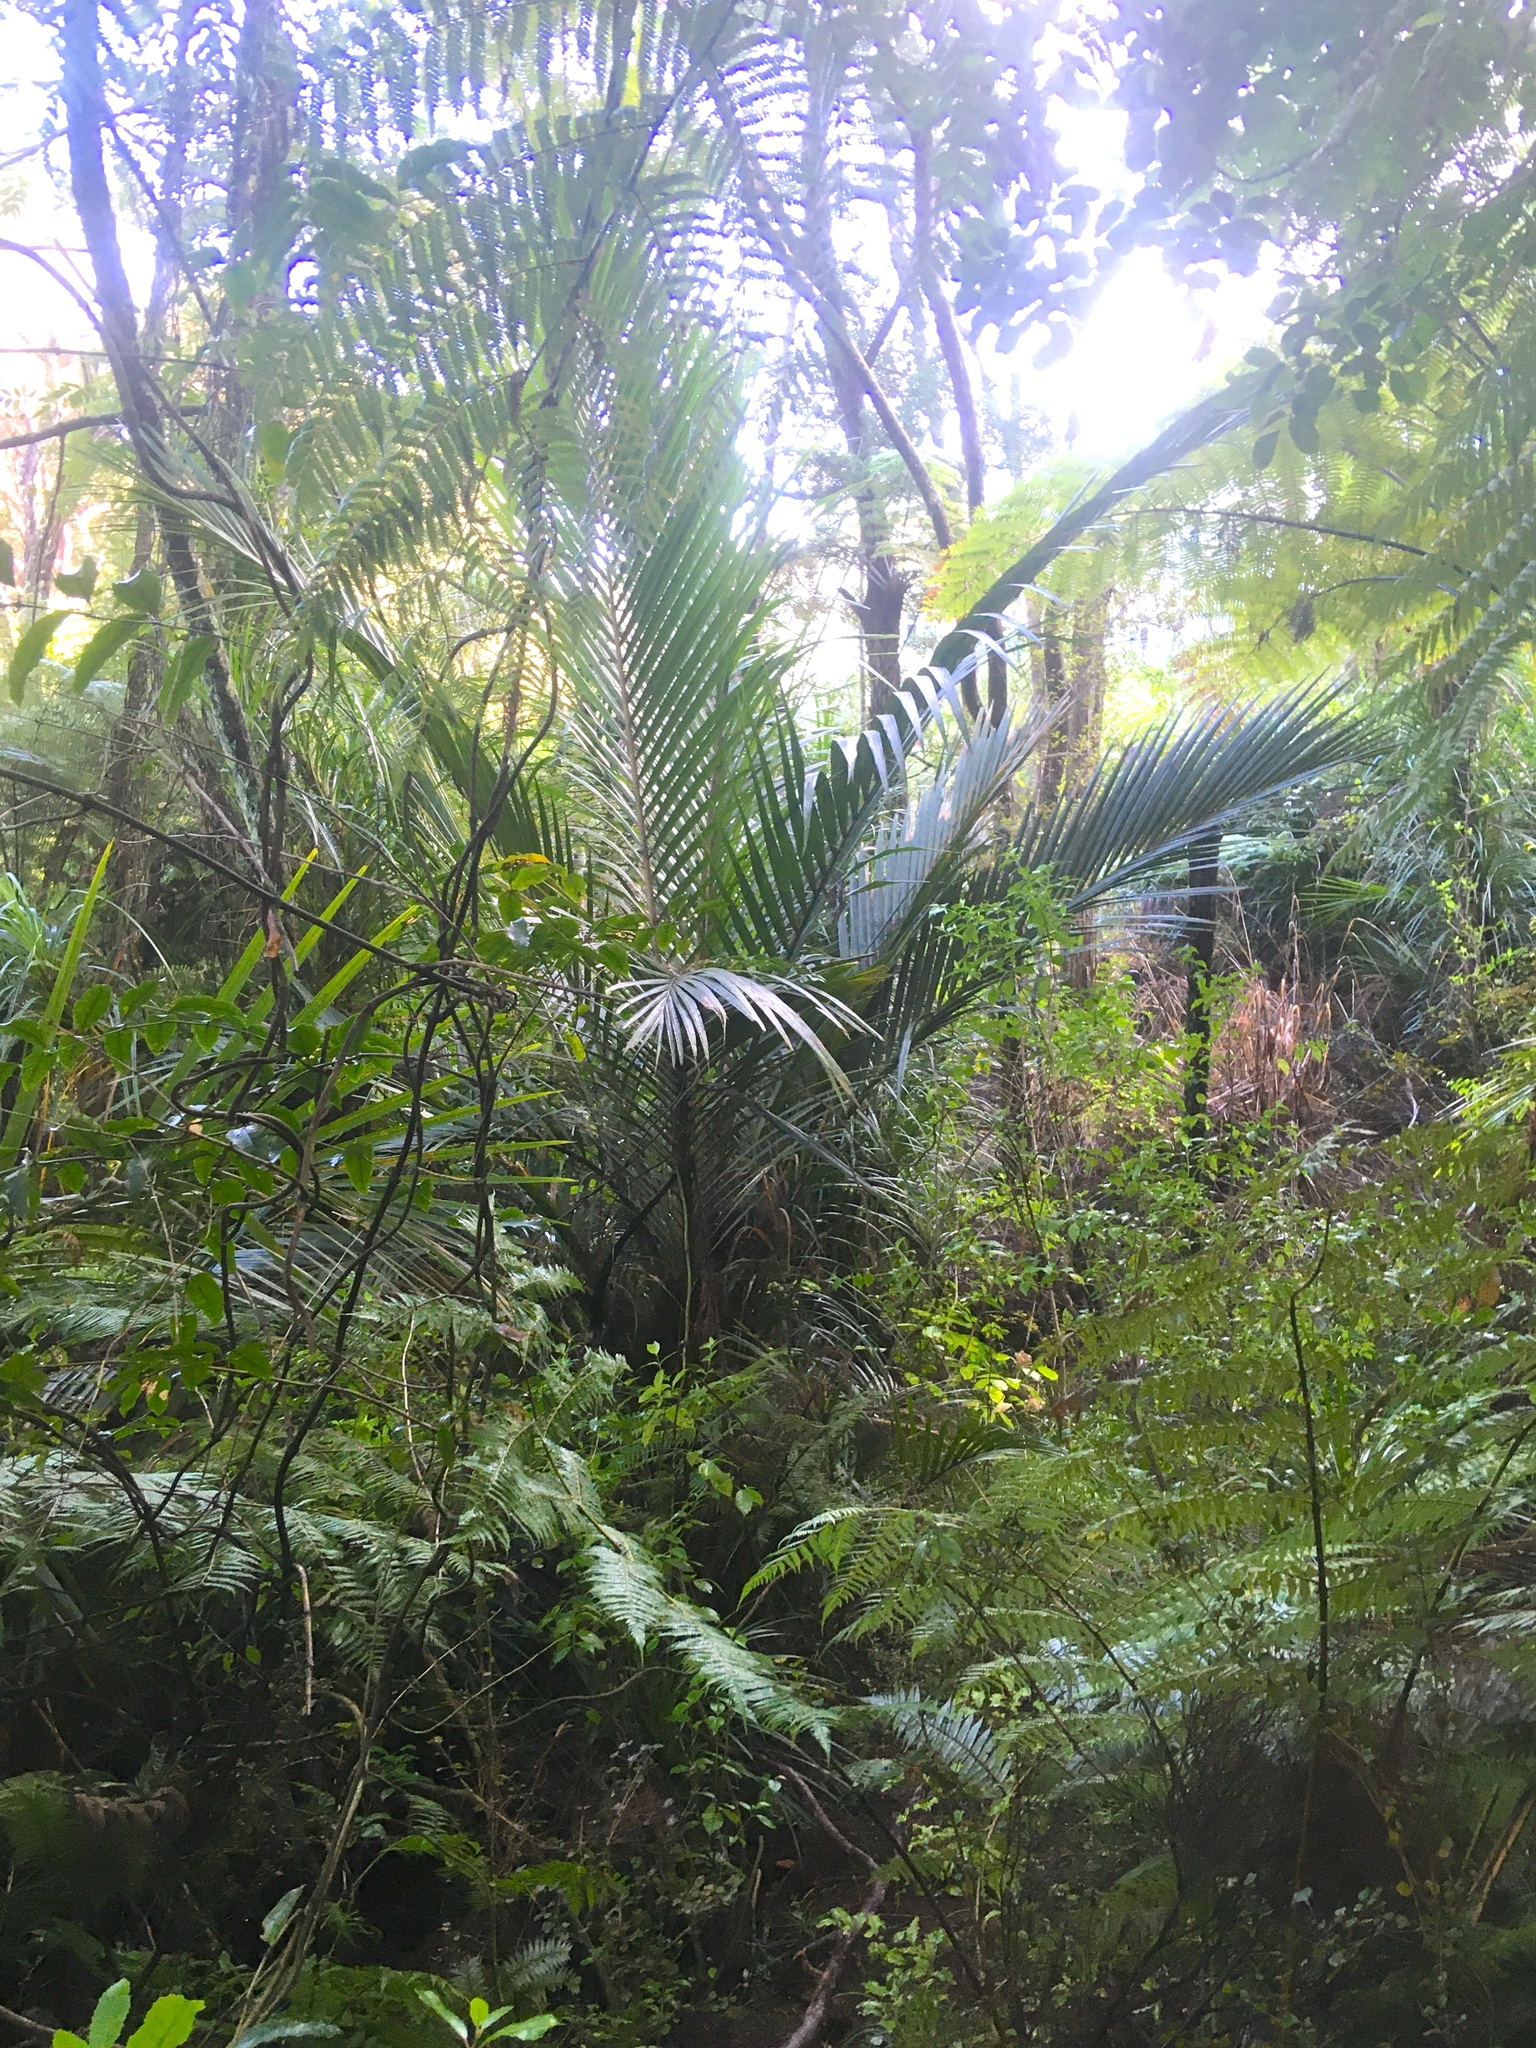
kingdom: Plantae
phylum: Tracheophyta
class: Liliopsida
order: Arecales
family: Arecaceae
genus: Rhopalostylis
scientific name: Rhopalostylis sapida
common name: Feather-duster palm
